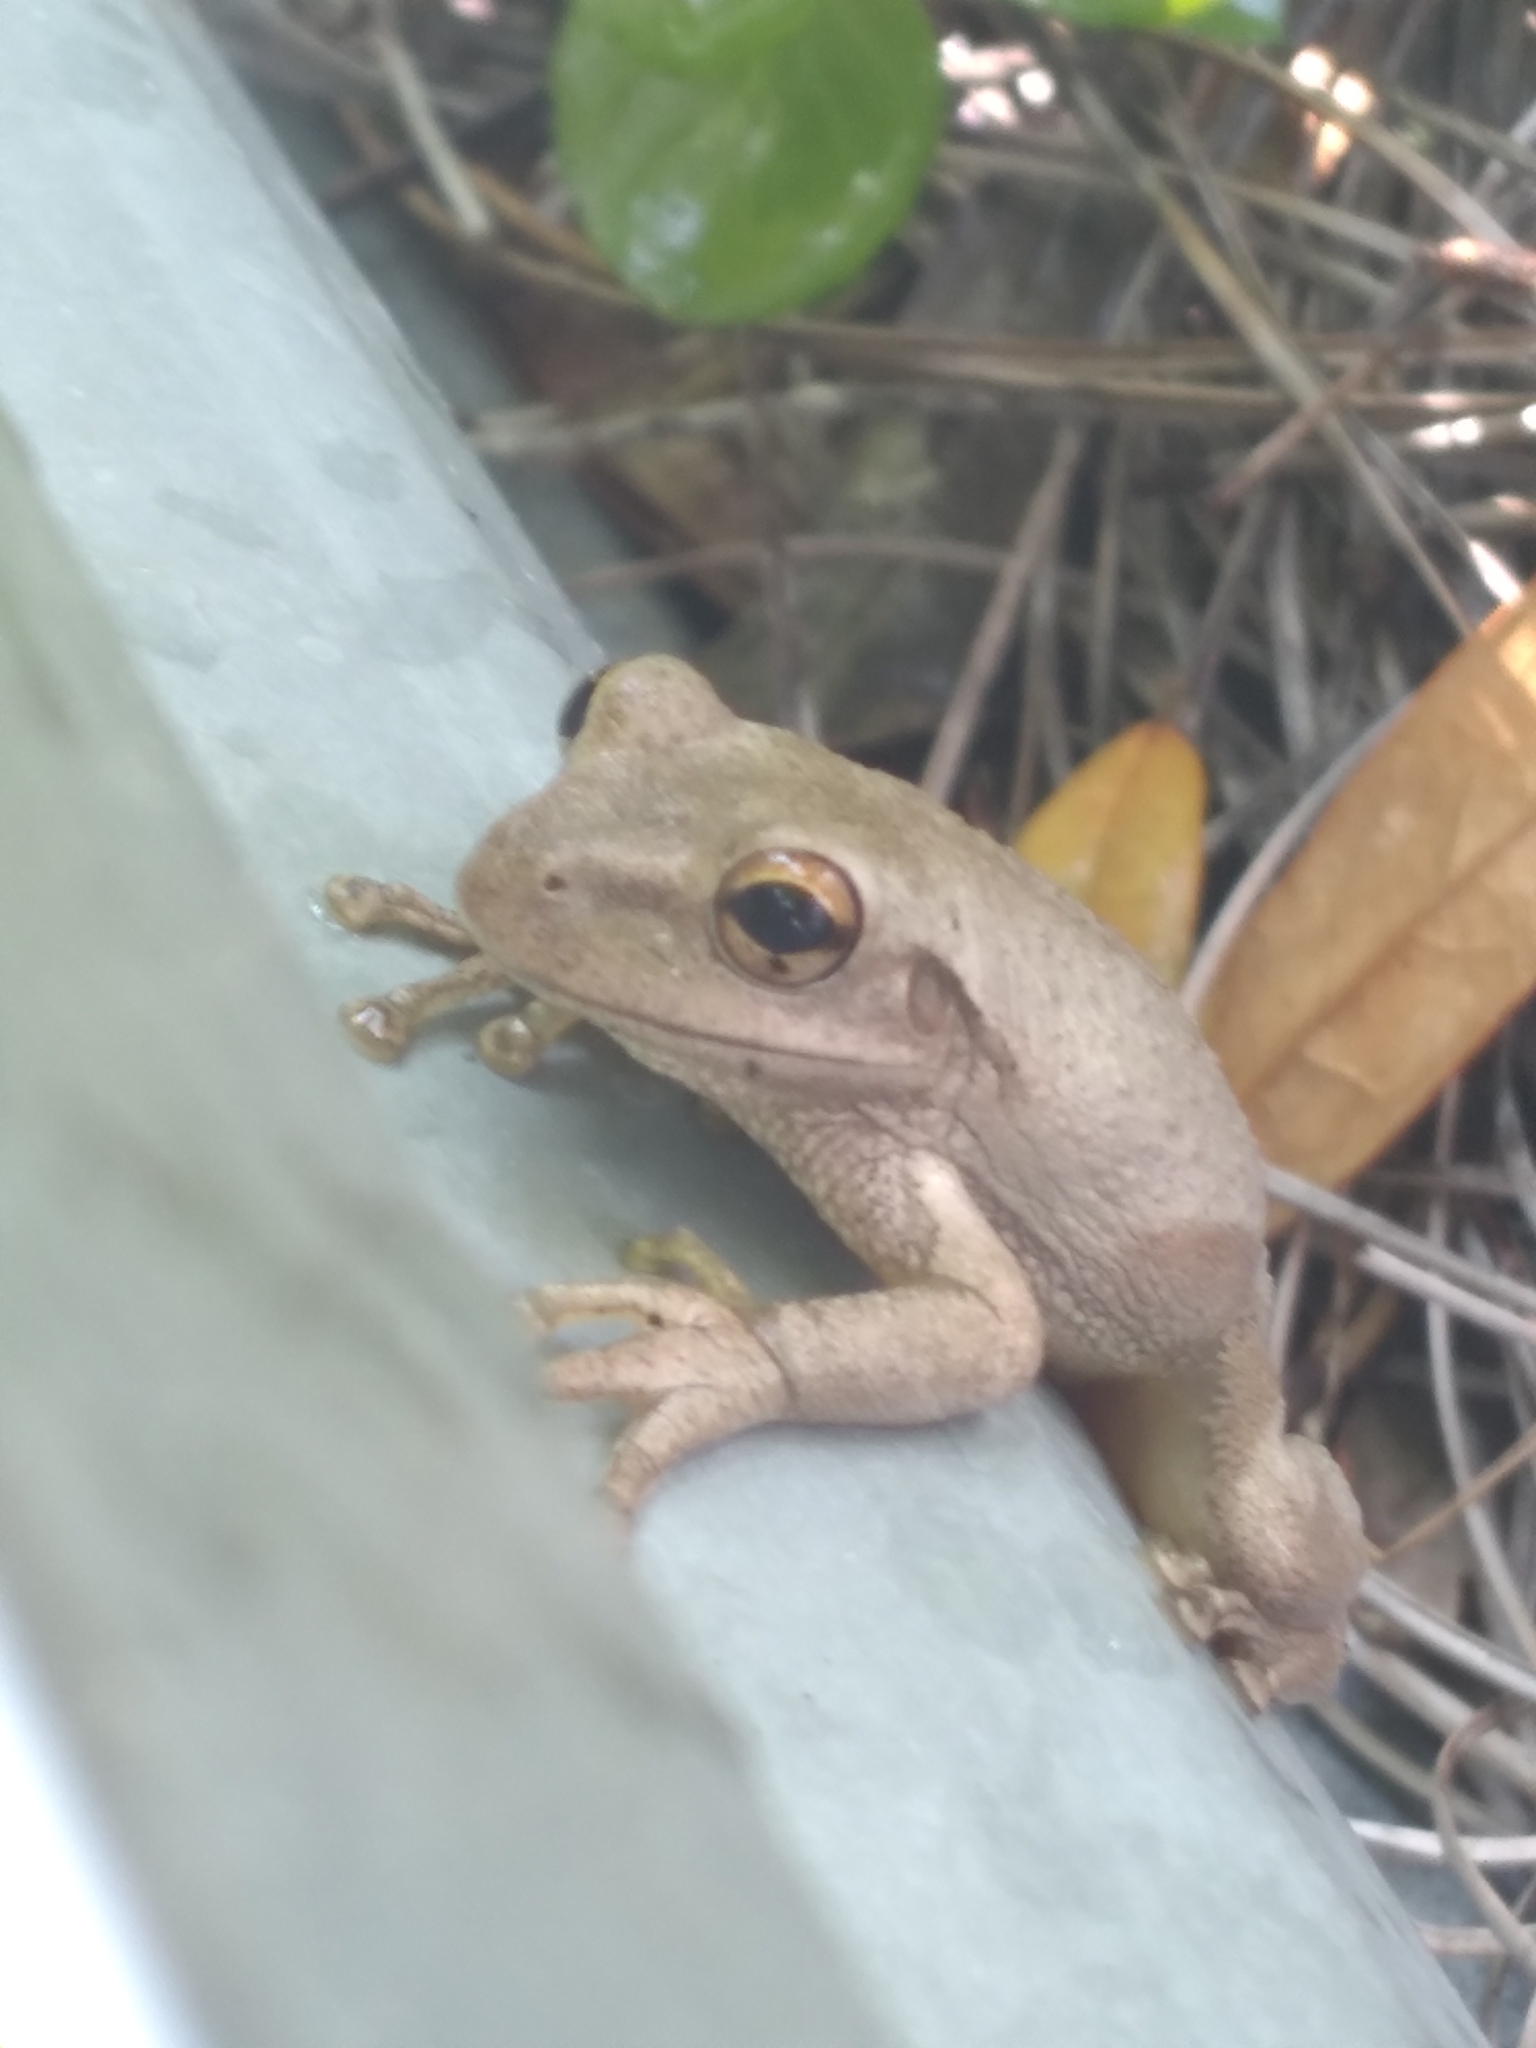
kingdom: Animalia
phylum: Chordata
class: Amphibia
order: Anura
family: Hylidae
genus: Osteopilus
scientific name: Osteopilus septentrionalis
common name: Cuban treefrog
